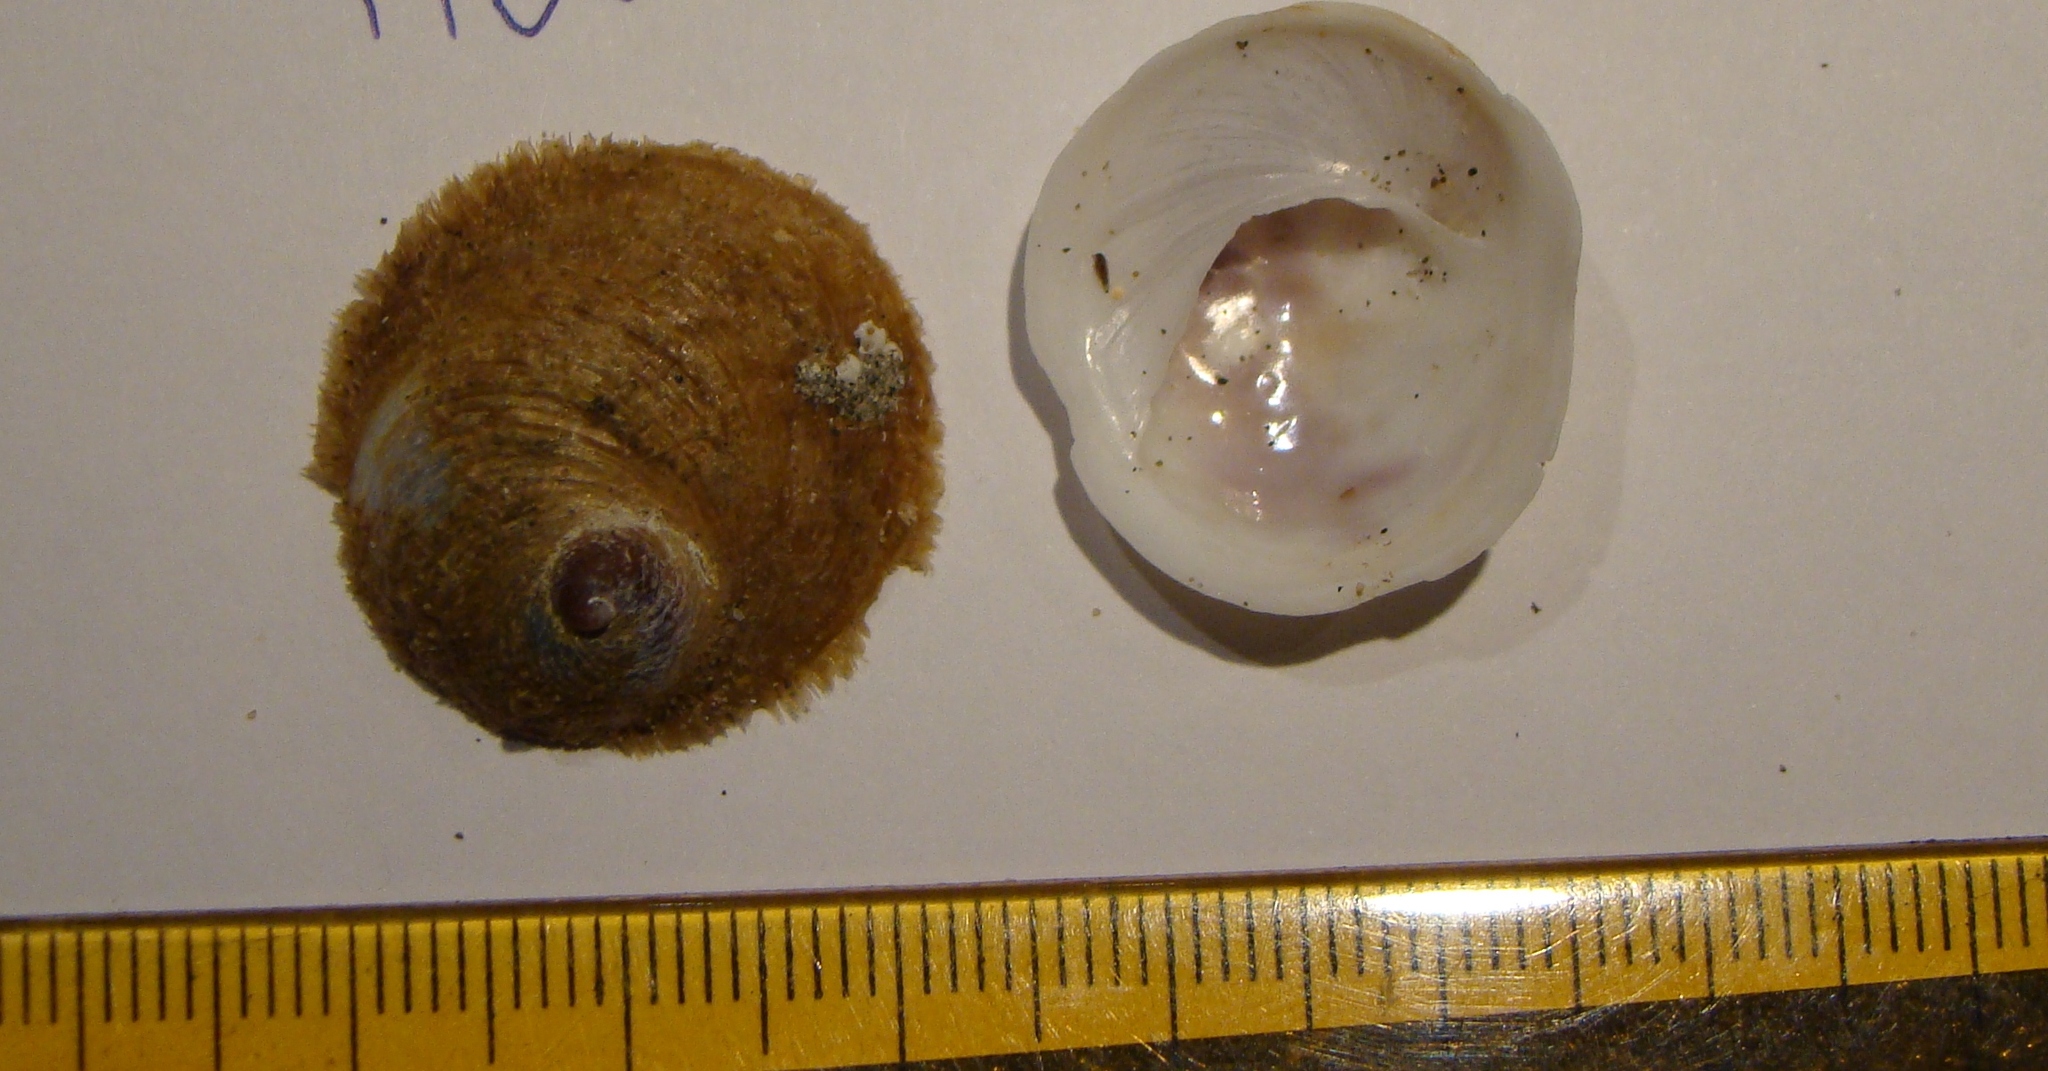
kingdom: Animalia
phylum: Mollusca
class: Gastropoda
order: Littorinimorpha
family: Calyptraeidae
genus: Sigapatella
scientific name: Sigapatella novaezelandiae
